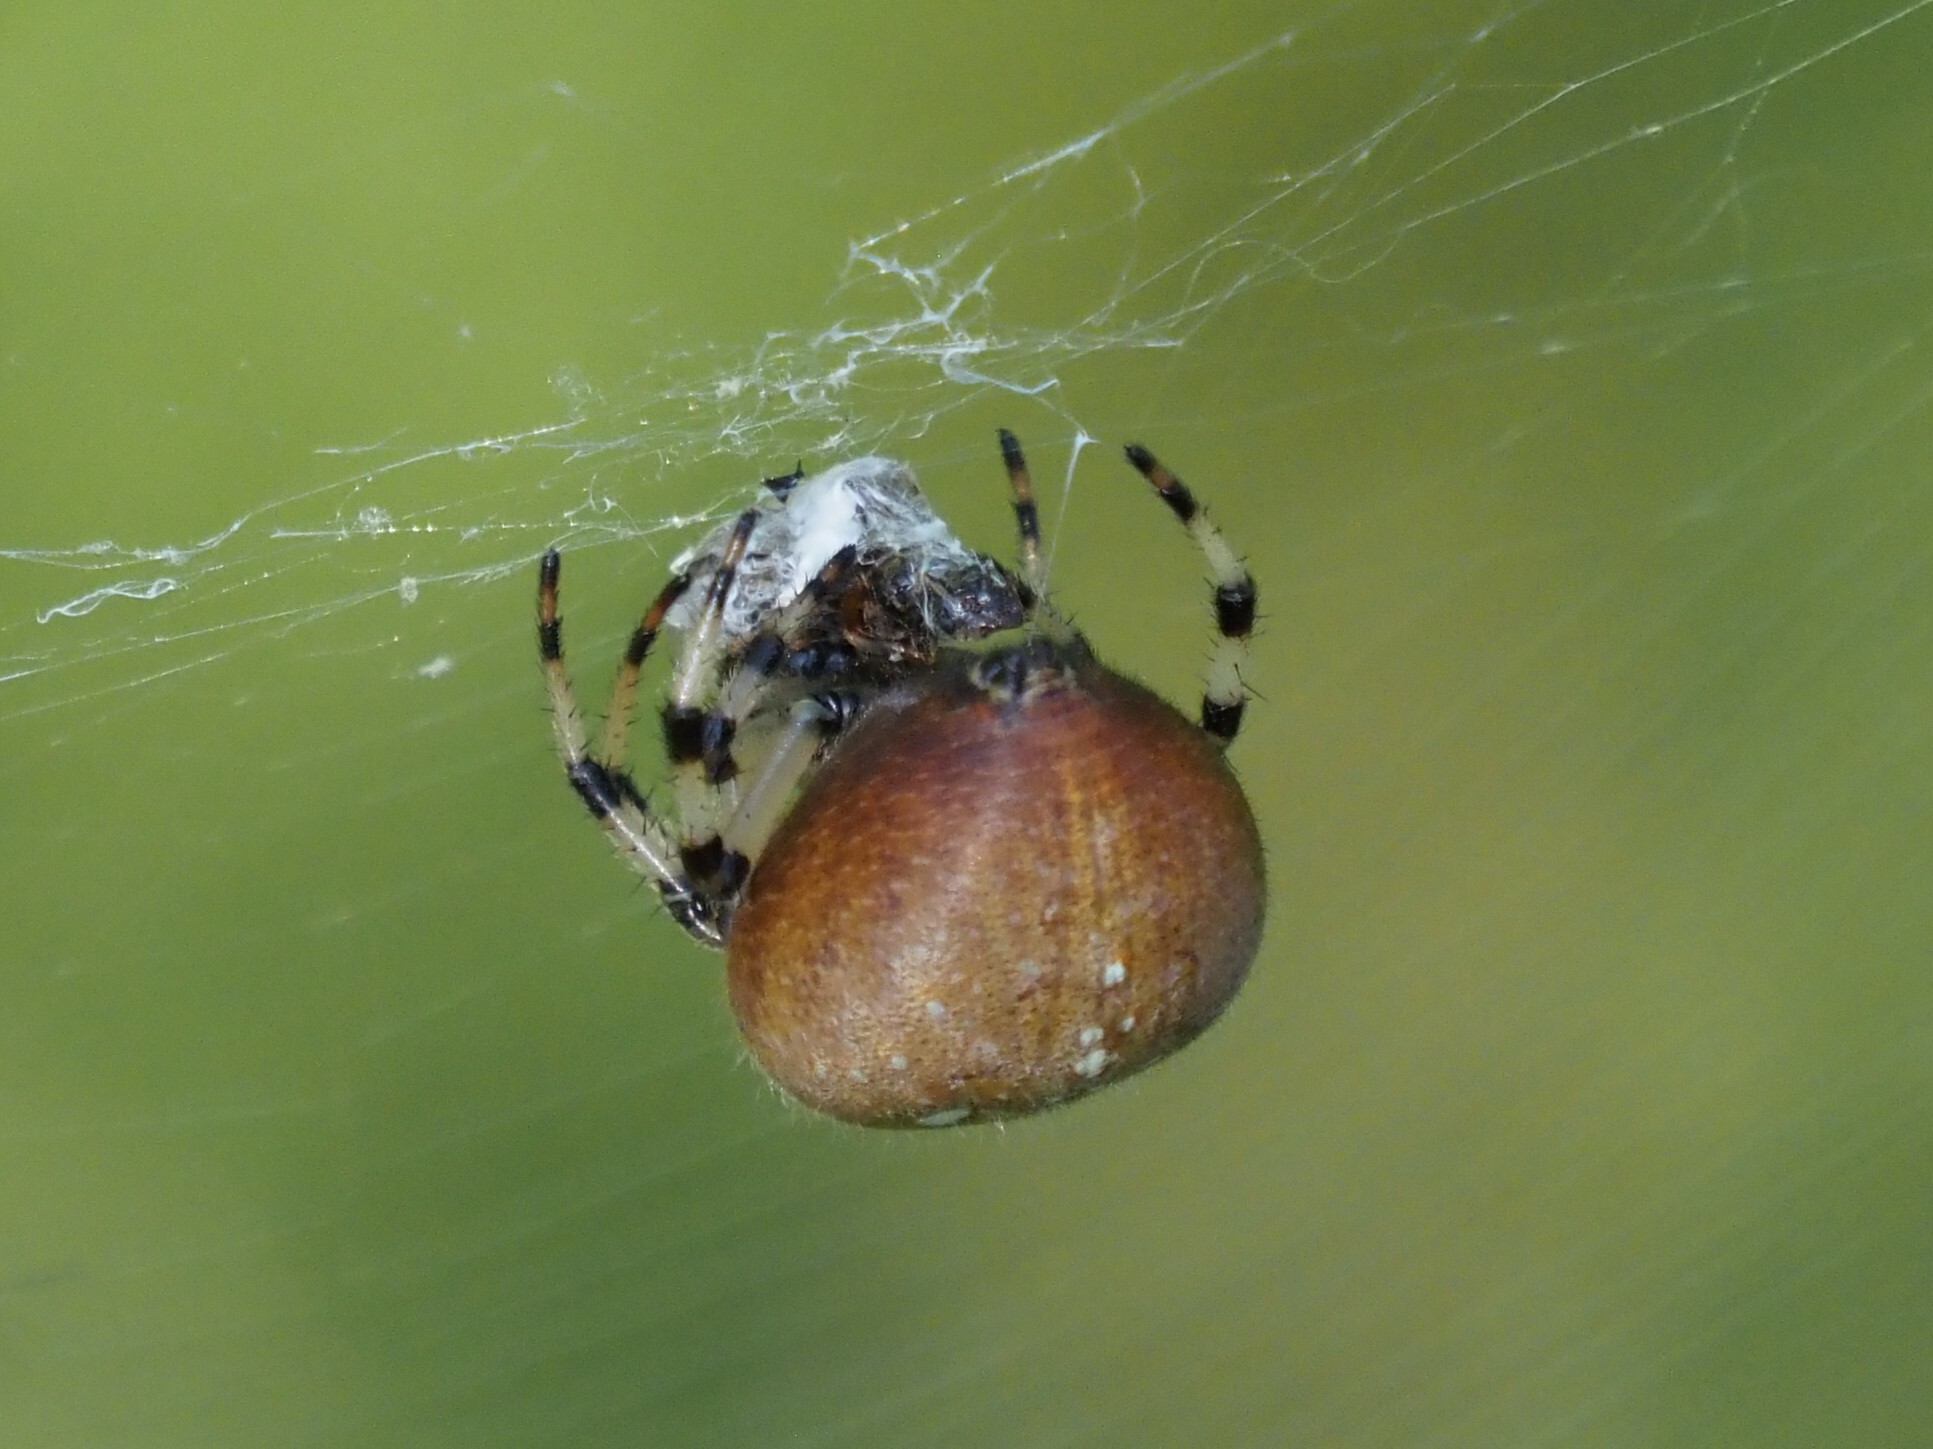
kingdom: Animalia
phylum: Arthropoda
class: Arachnida
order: Araneae
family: Araneidae
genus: Araneus
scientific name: Araneus trifolium
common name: Shamrock orbweaver
